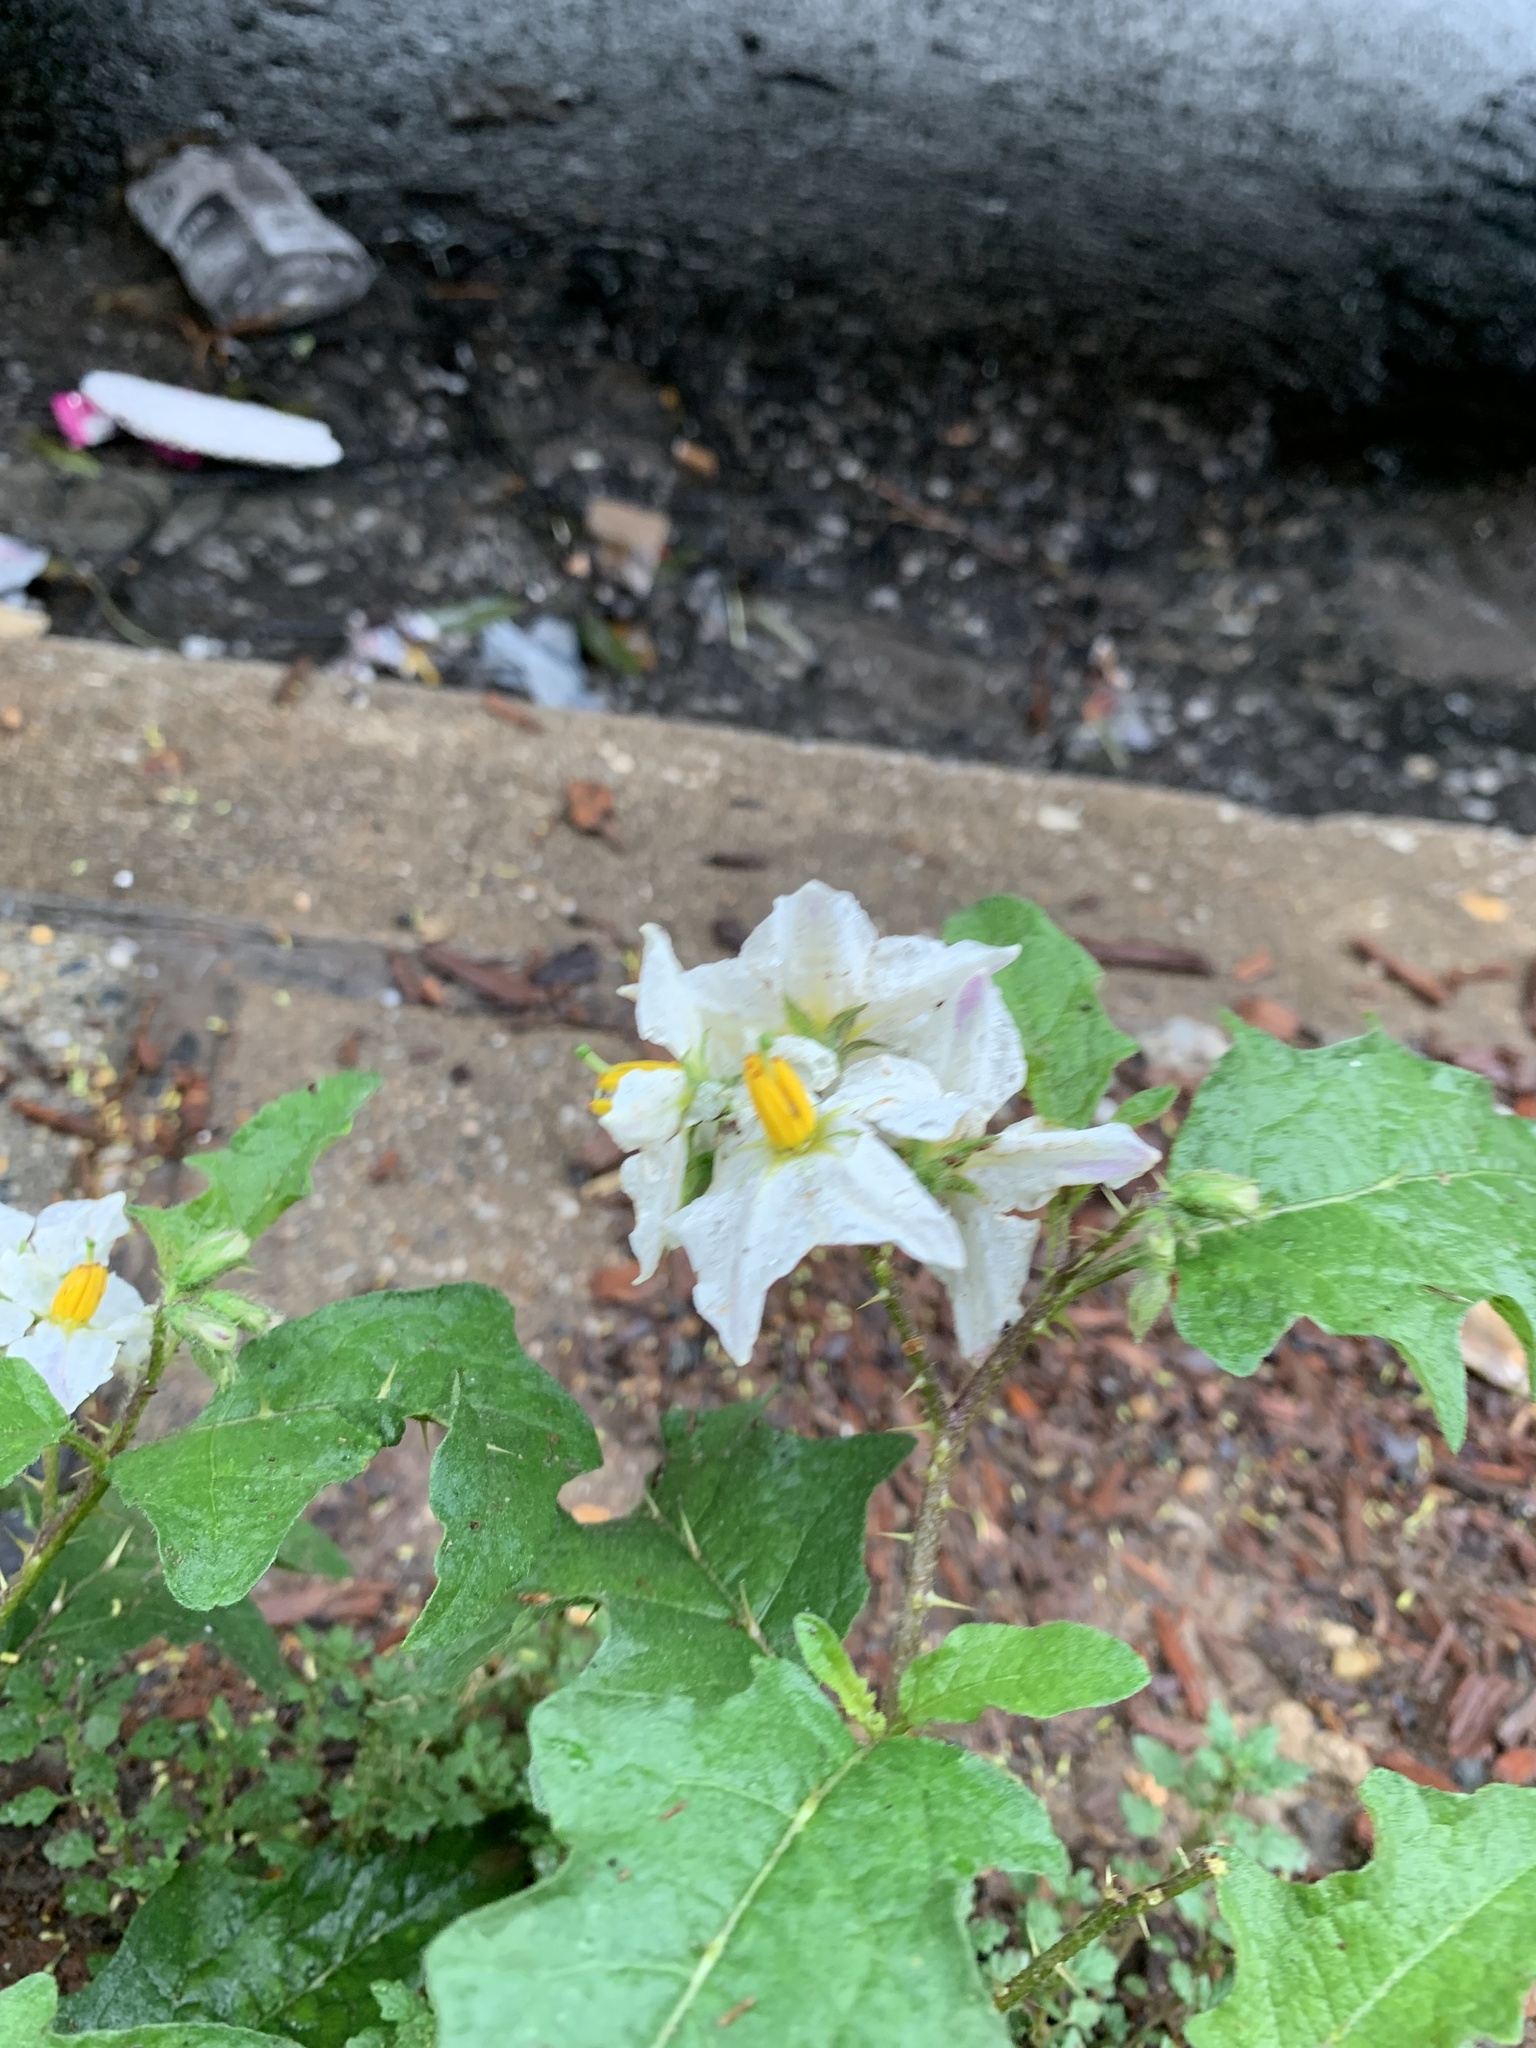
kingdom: Plantae
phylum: Tracheophyta
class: Magnoliopsida
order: Solanales
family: Solanaceae
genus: Solanum
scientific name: Solanum carolinense
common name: Horse-nettle
